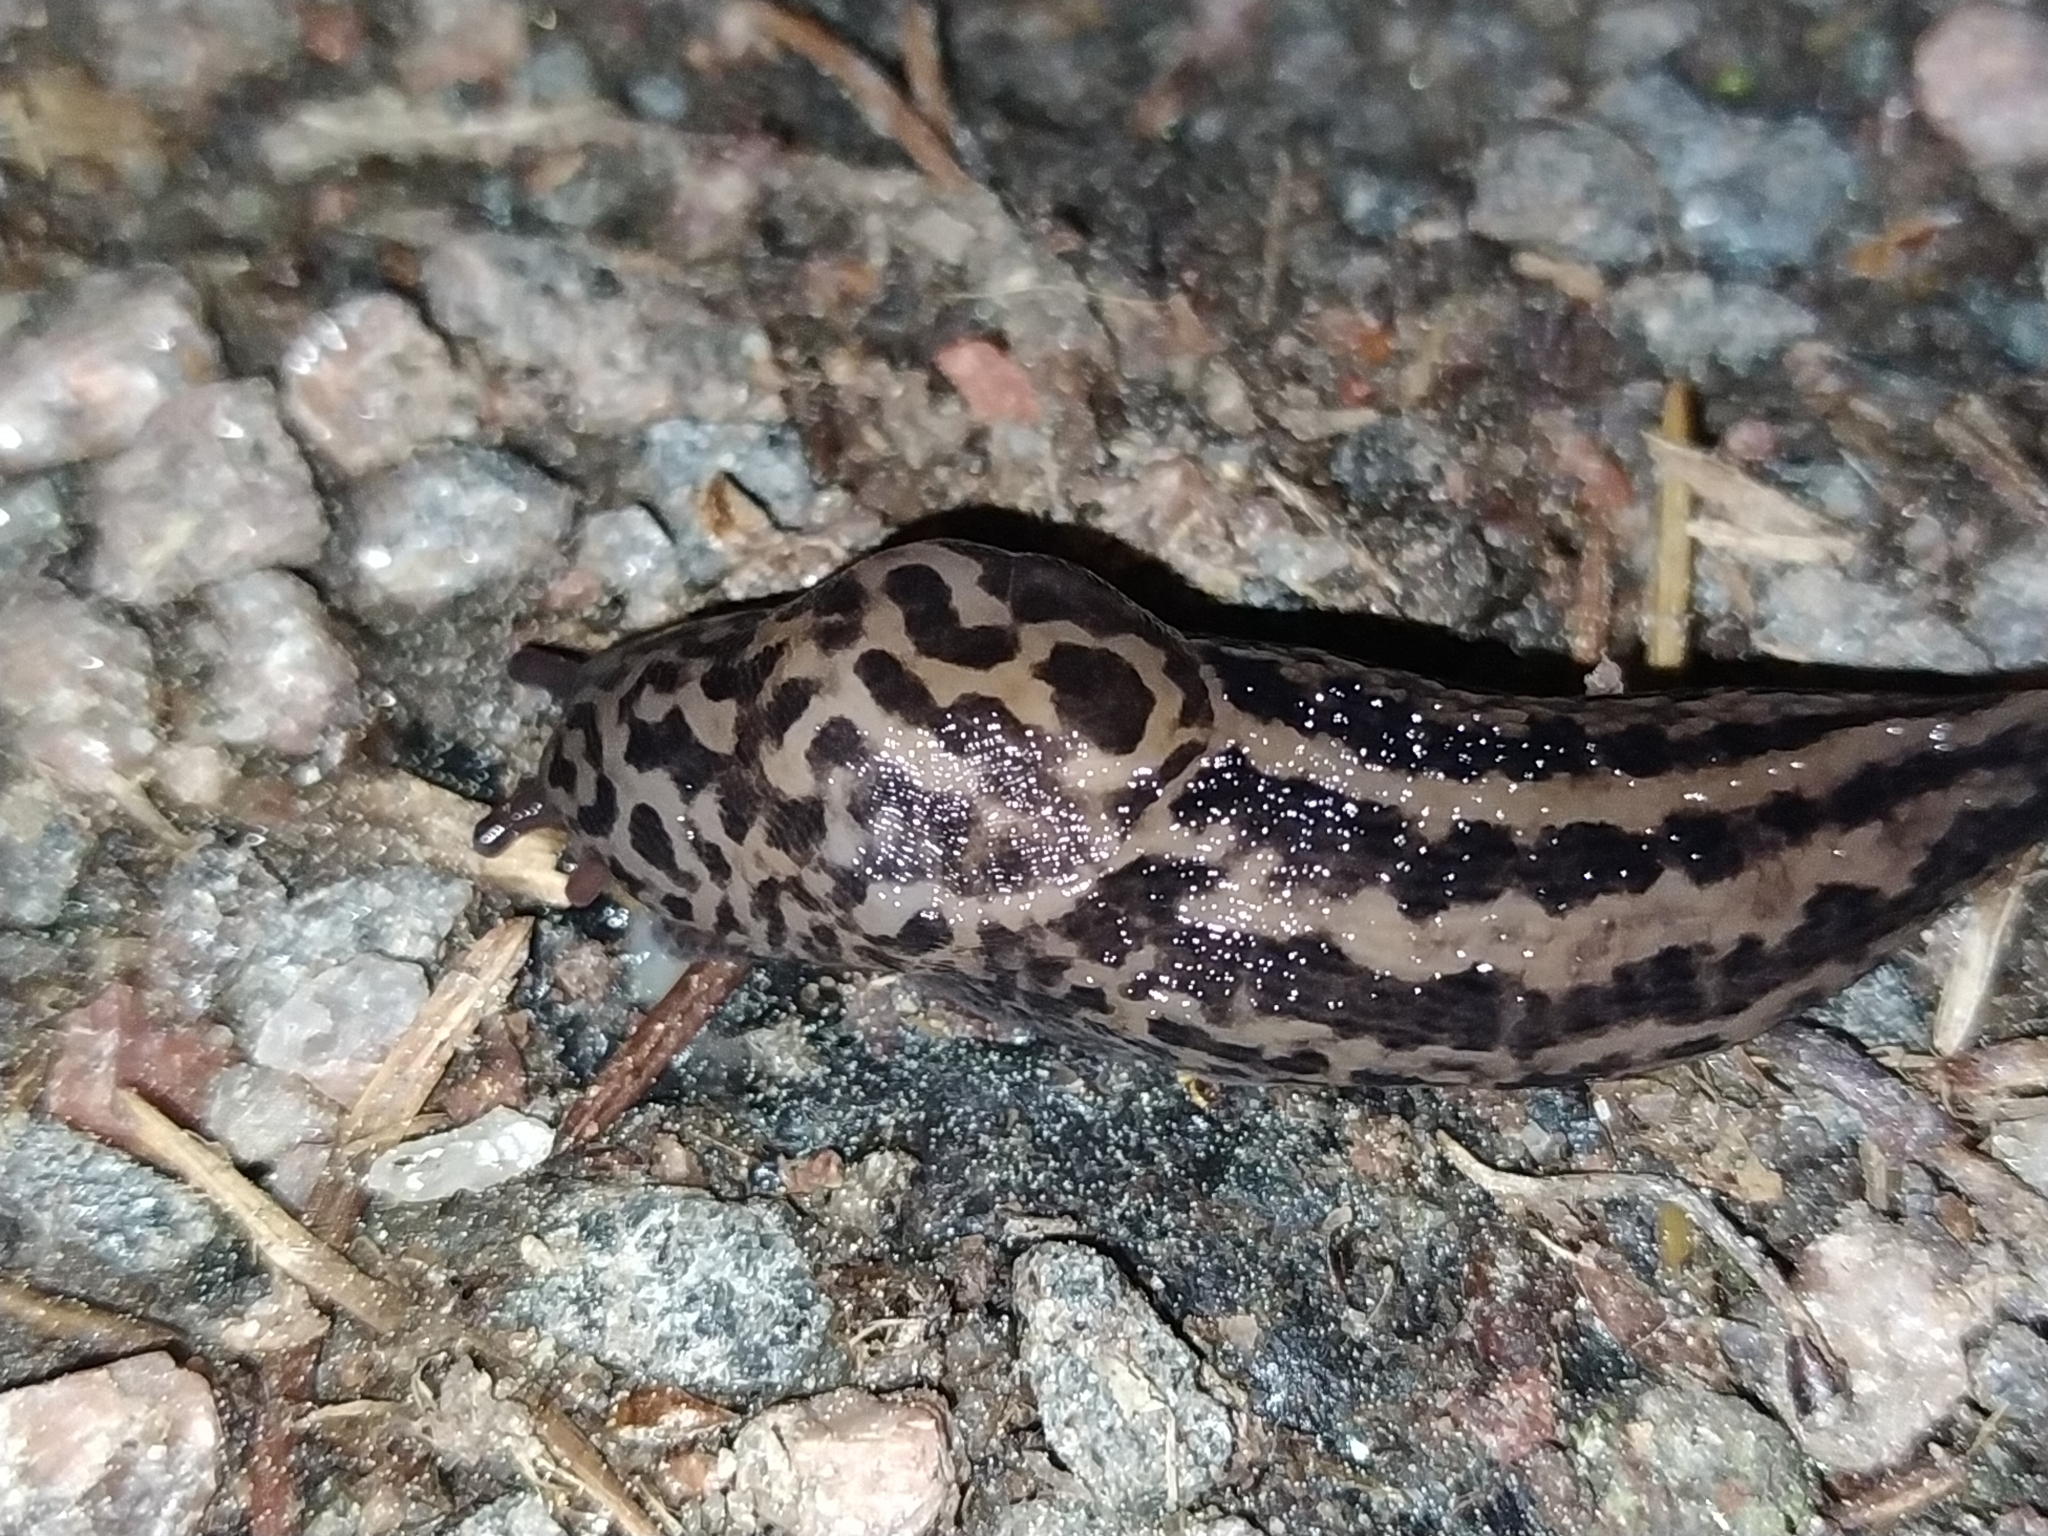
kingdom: Animalia
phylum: Mollusca
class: Gastropoda
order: Stylommatophora
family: Limacidae
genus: Limax
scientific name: Limax maximus
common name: Great grey slug
